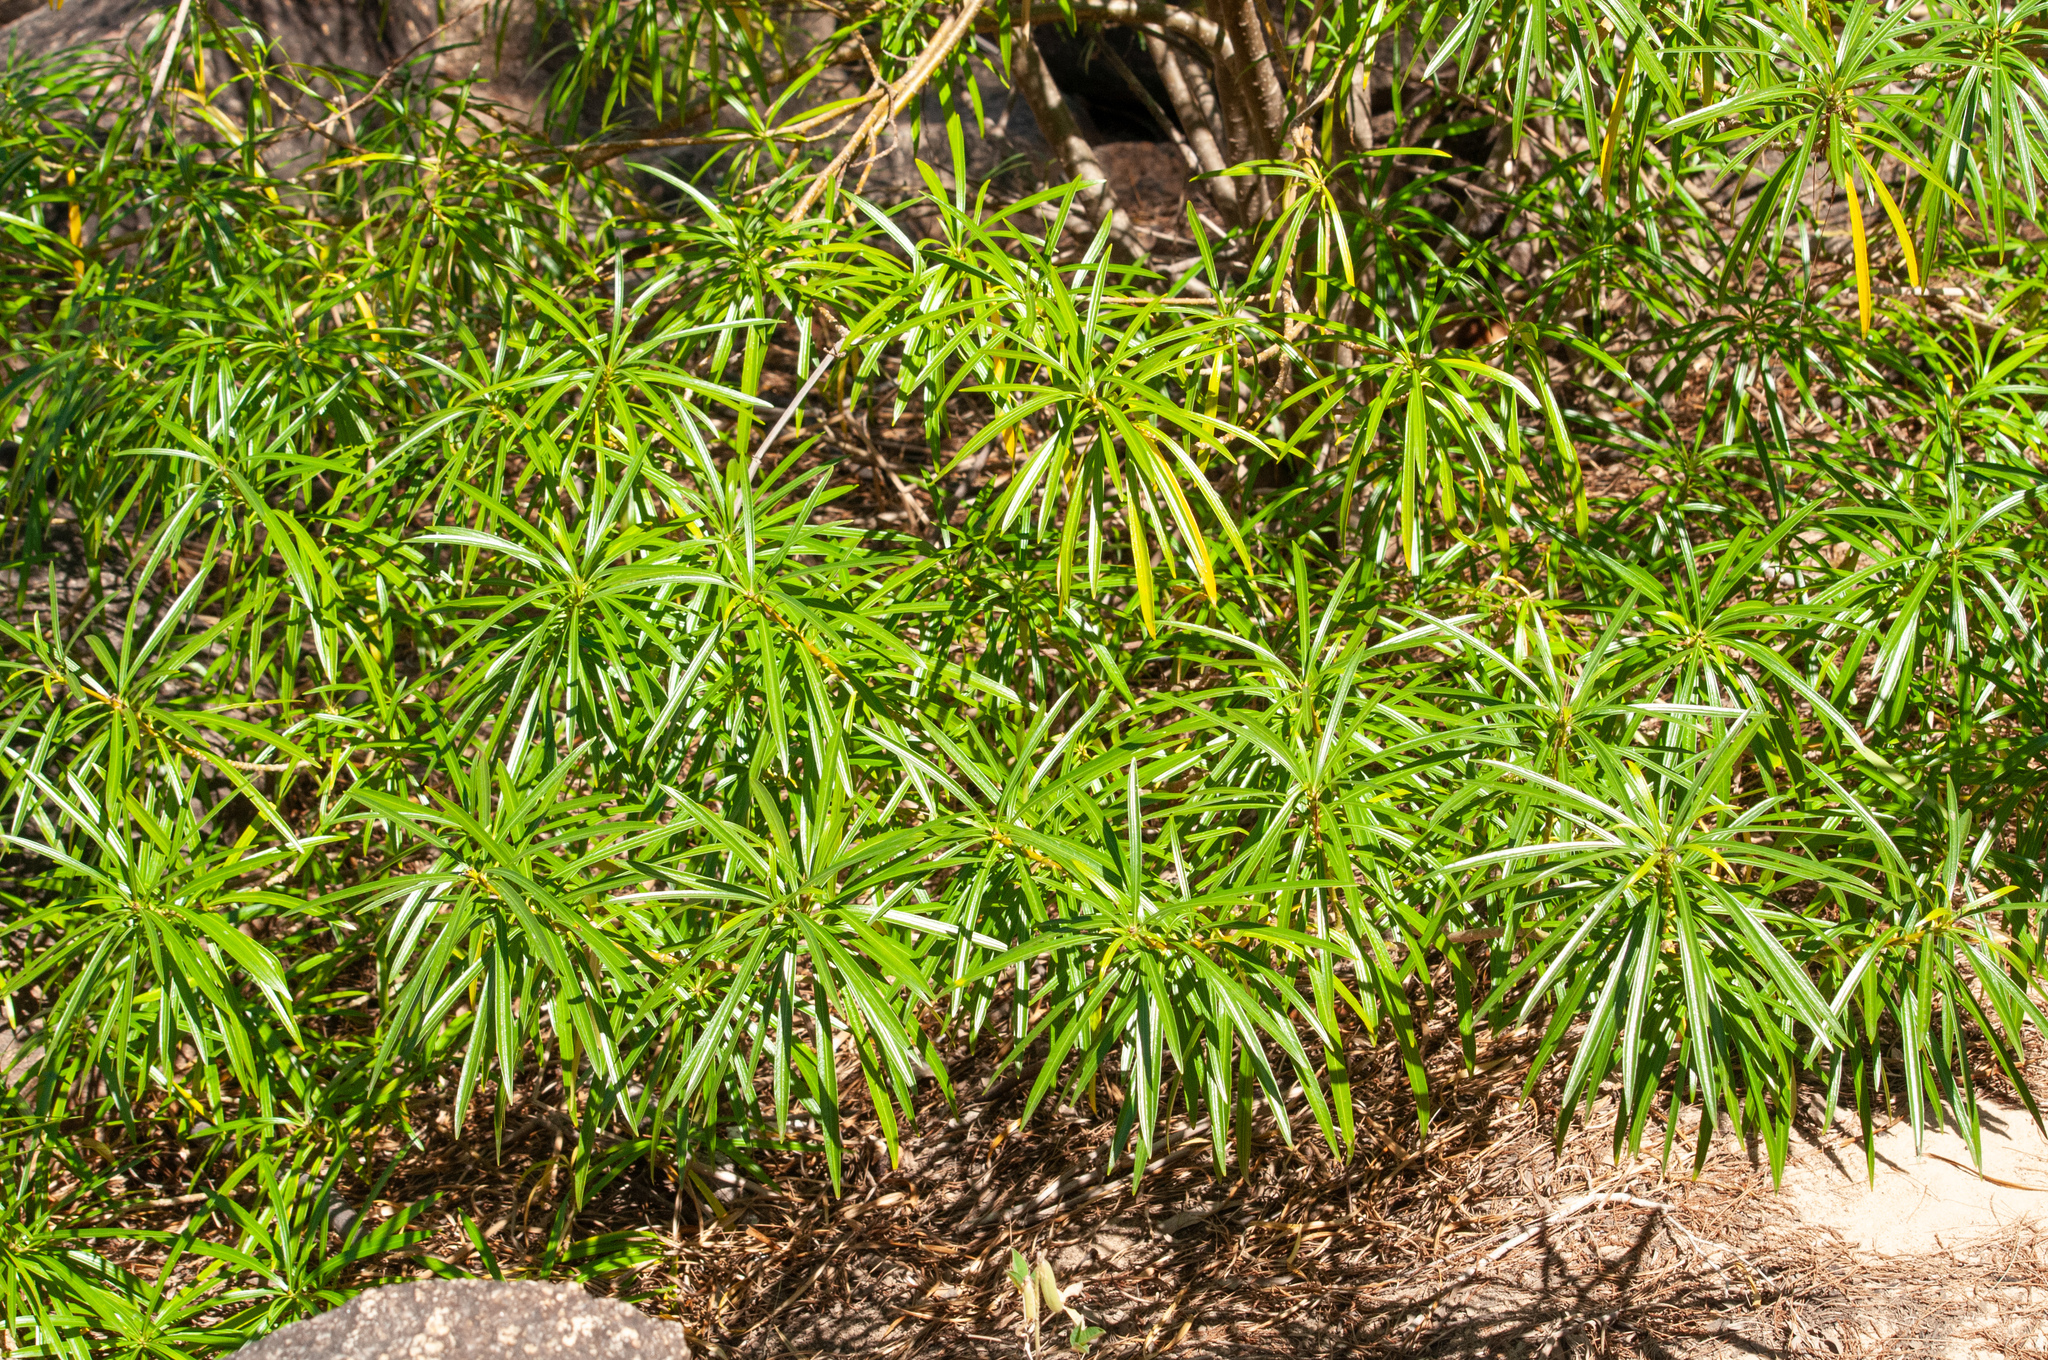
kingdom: Plantae
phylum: Tracheophyta
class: Magnoliopsida
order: Gentianales
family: Apocynaceae
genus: Cascabela
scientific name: Cascabela thevetia
